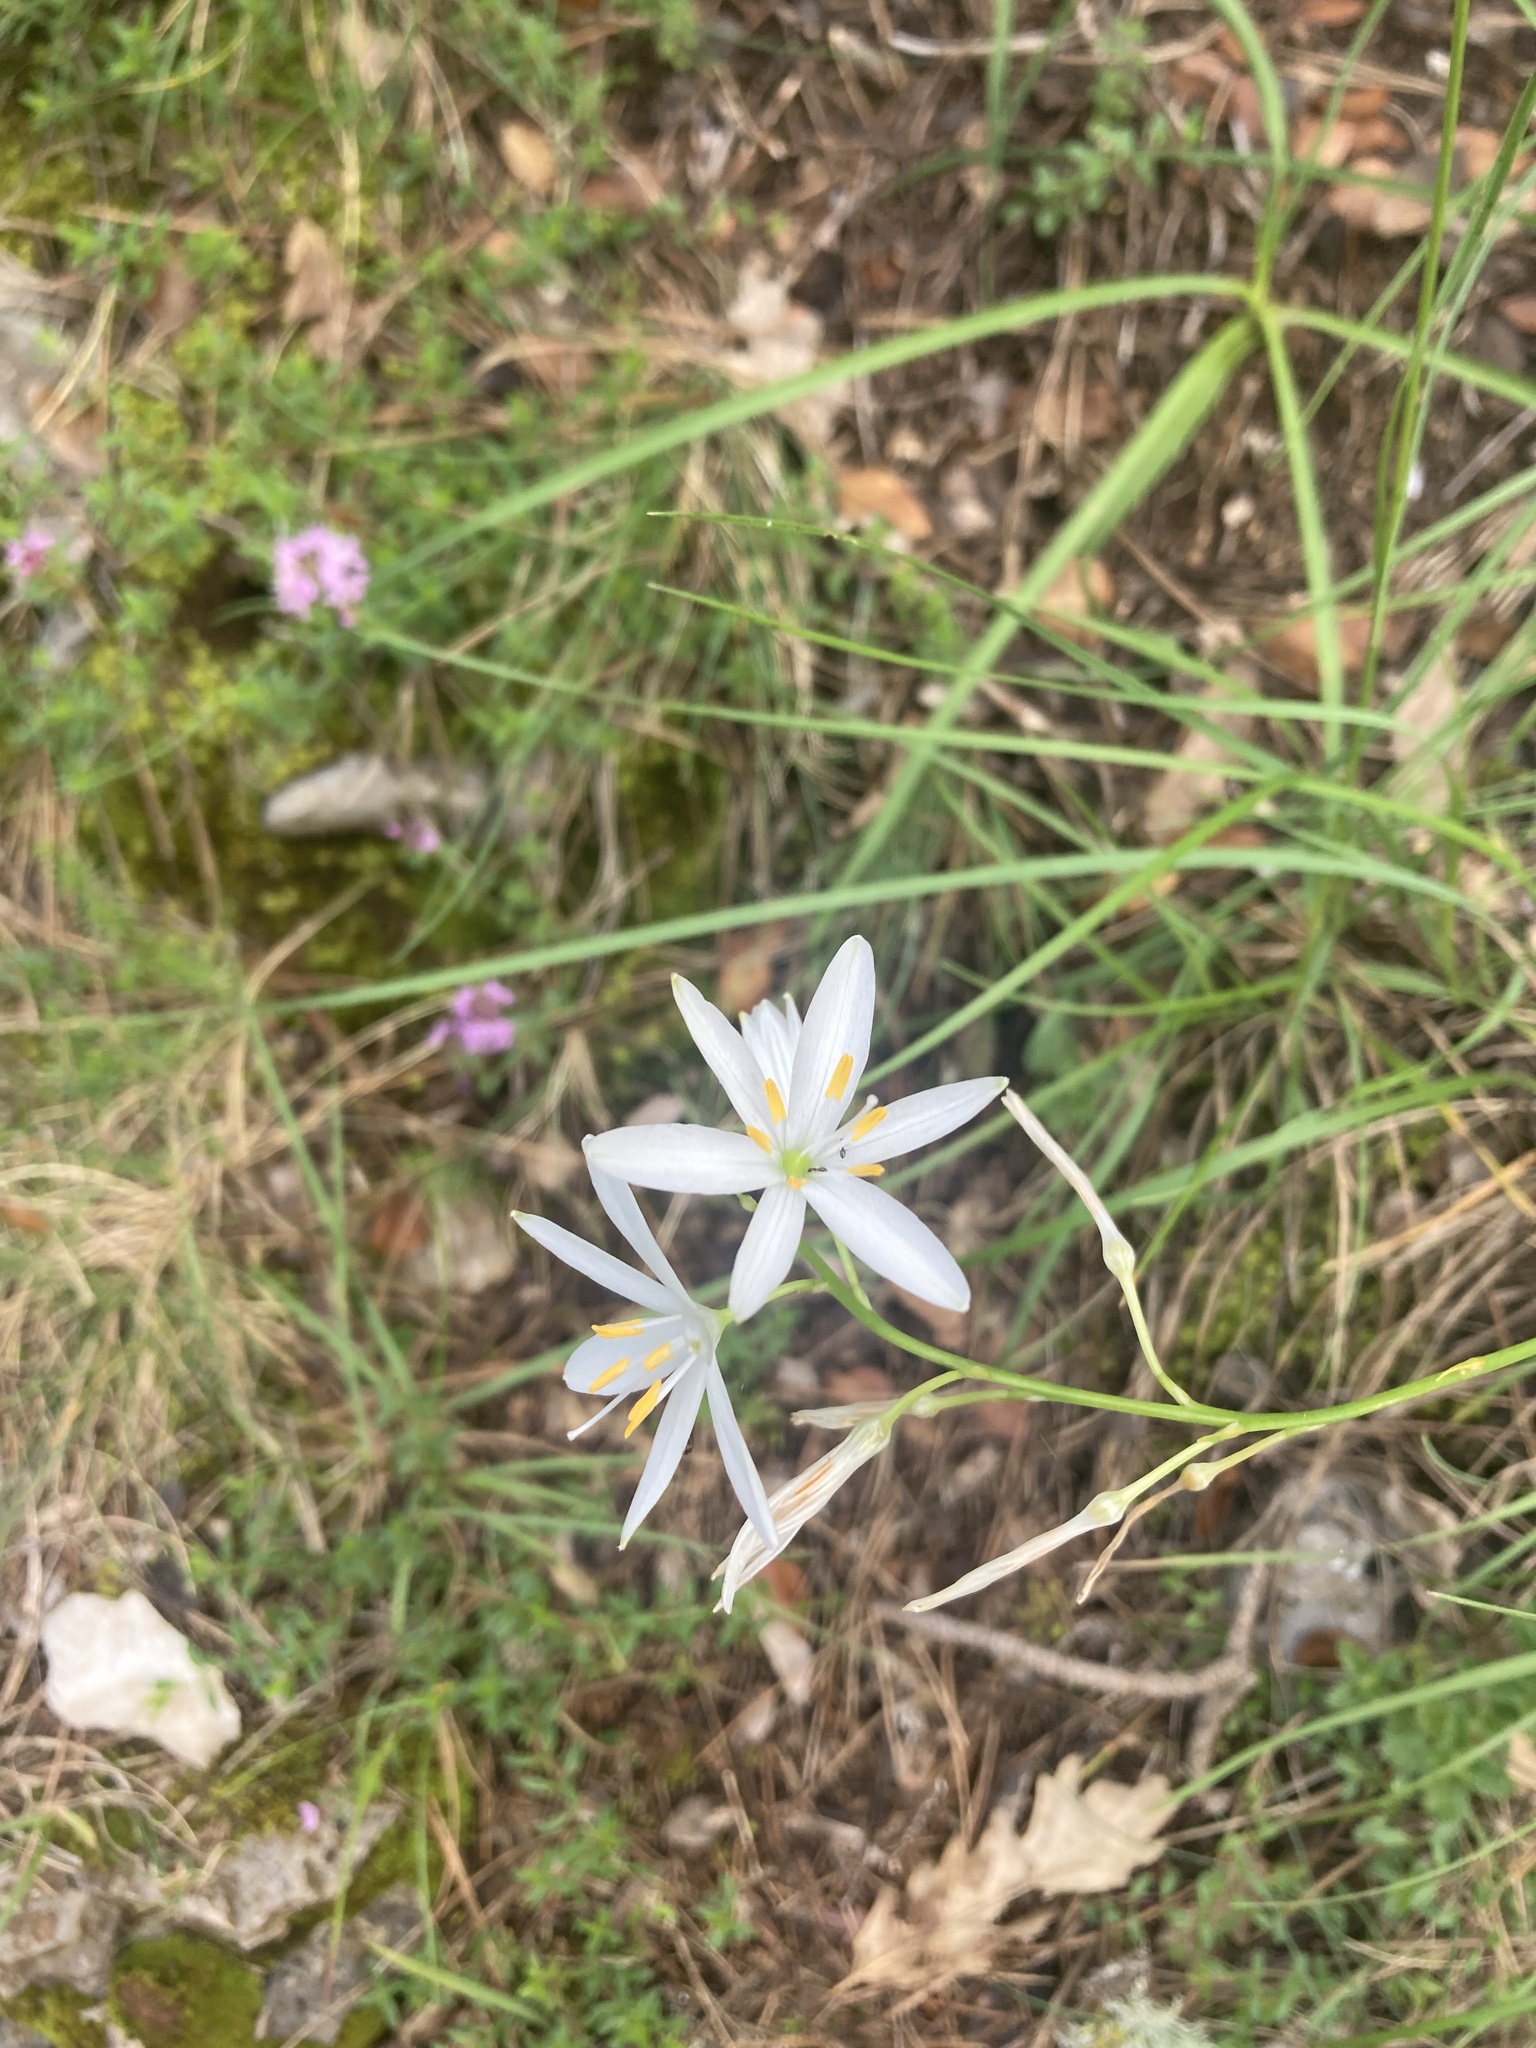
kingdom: Plantae
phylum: Tracheophyta
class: Liliopsida
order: Asparagales
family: Asparagaceae
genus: Anthericum
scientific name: Anthericum liliago
